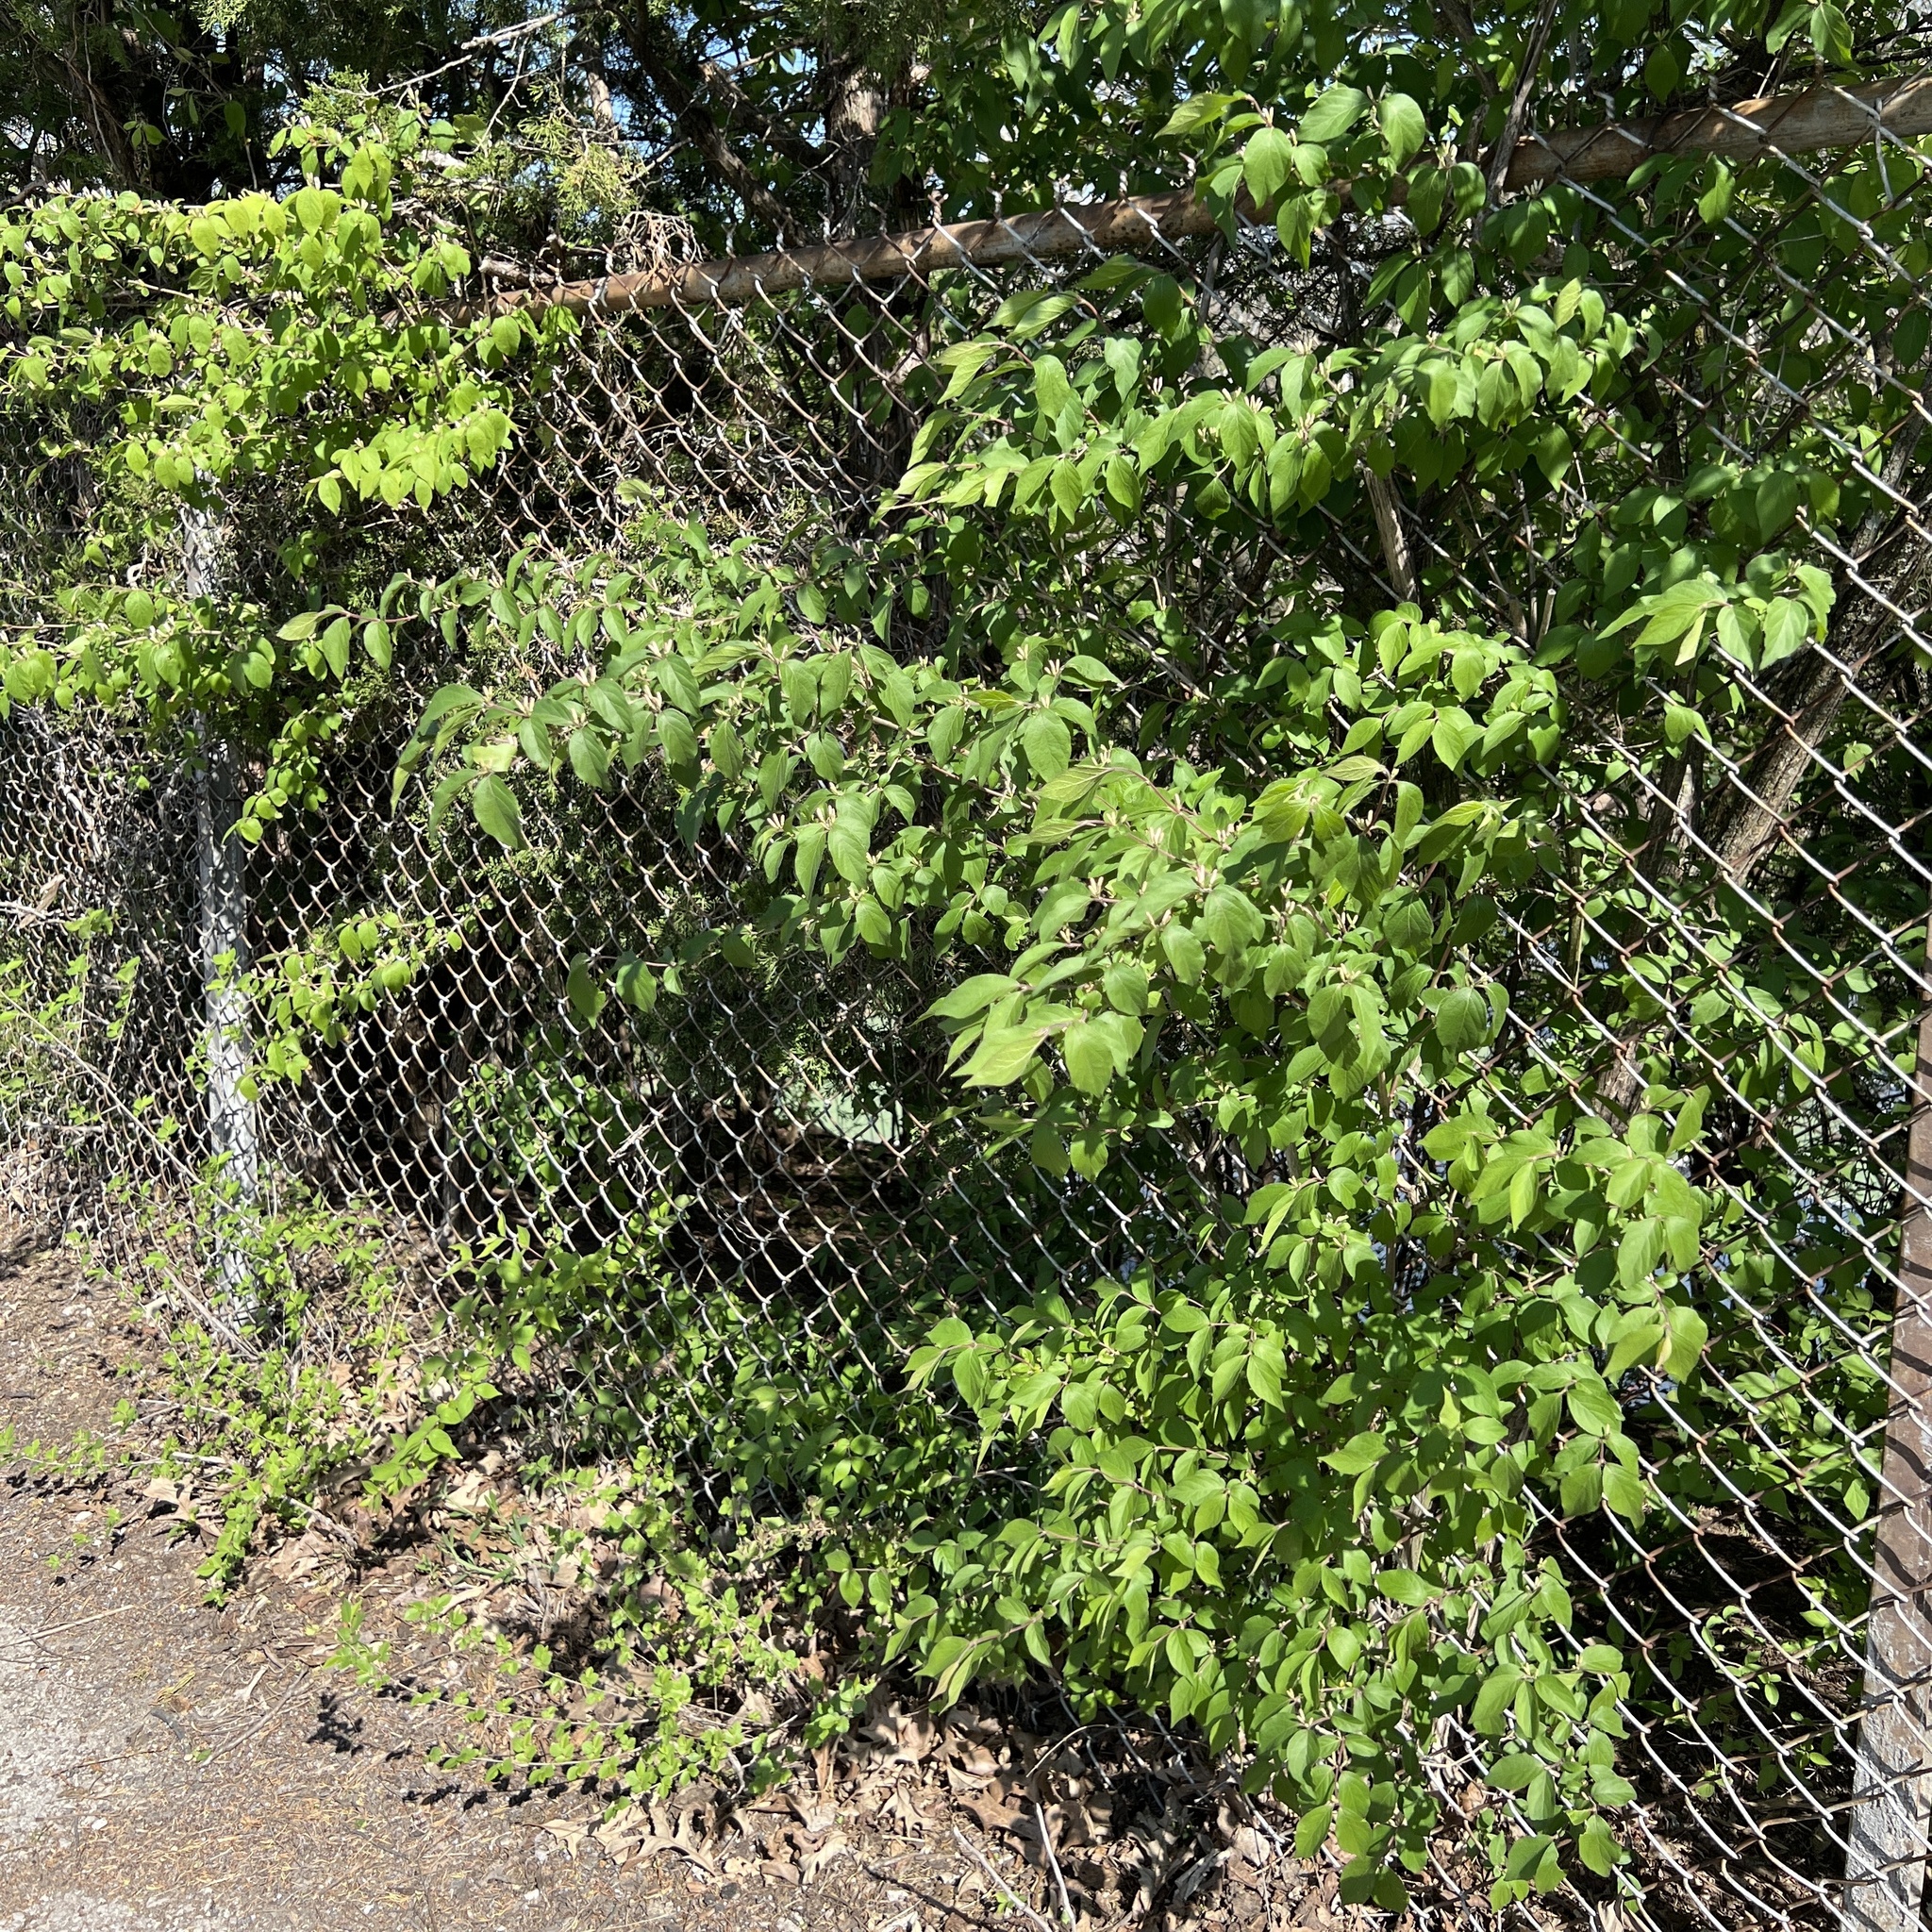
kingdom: Plantae
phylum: Tracheophyta
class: Magnoliopsida
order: Dipsacales
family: Caprifoliaceae
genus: Lonicera
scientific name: Lonicera maackii
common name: Amur honeysuckle
